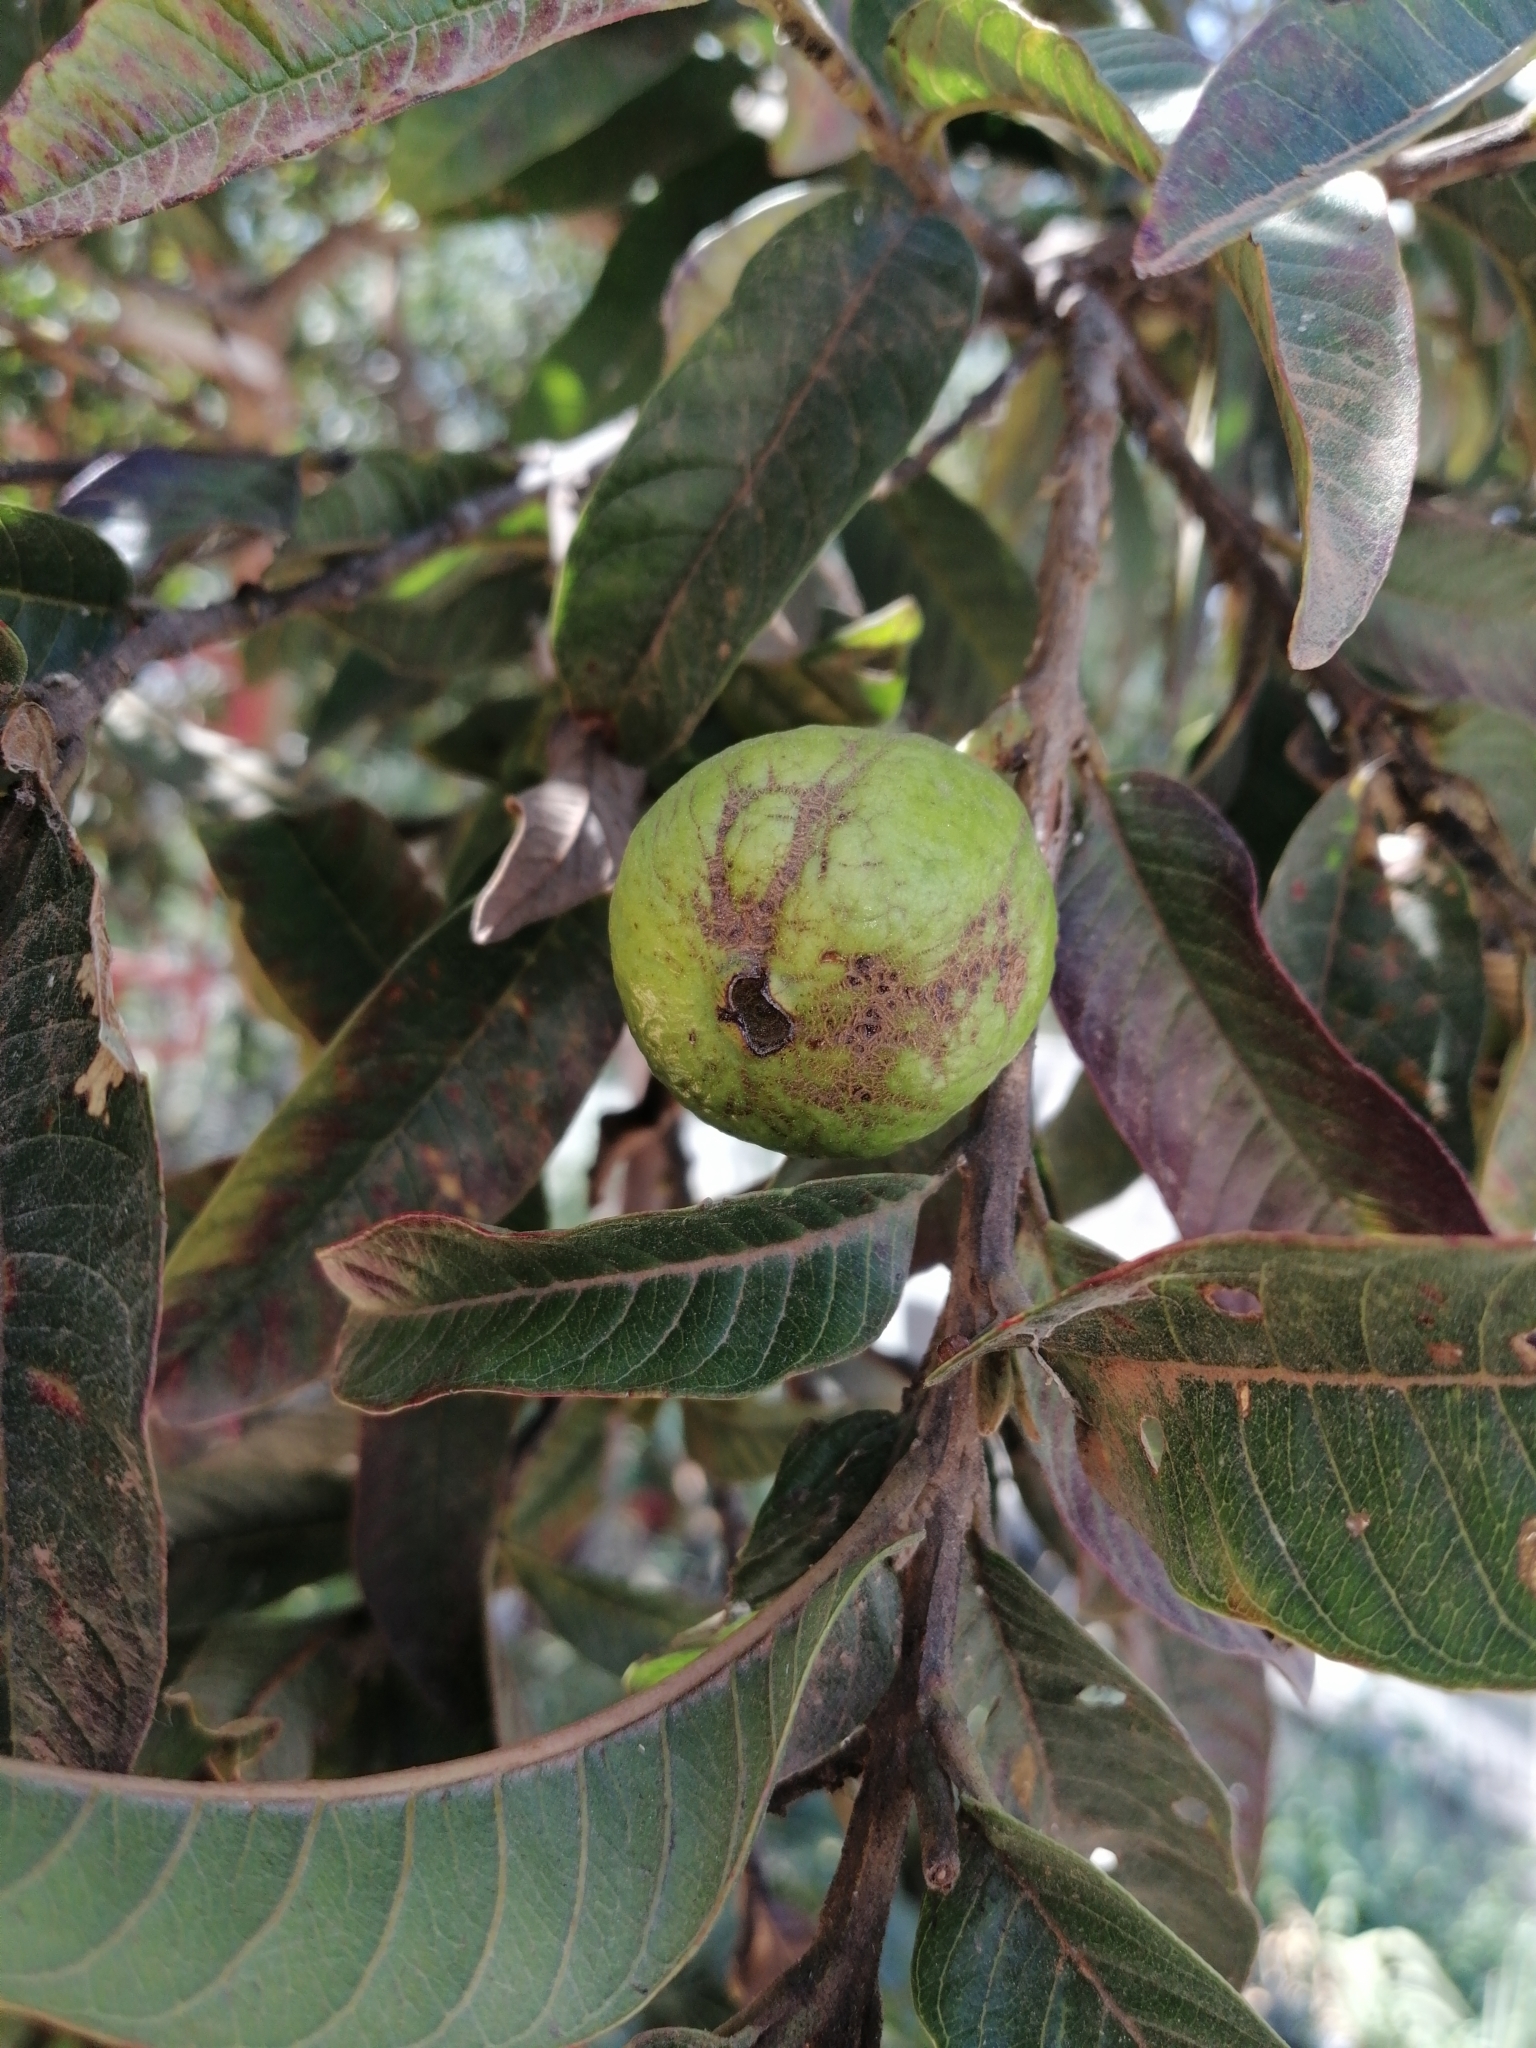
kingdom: Plantae
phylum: Tracheophyta
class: Magnoliopsida
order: Myrtales
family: Myrtaceae
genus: Psidium
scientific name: Psidium guajava
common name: Guava
